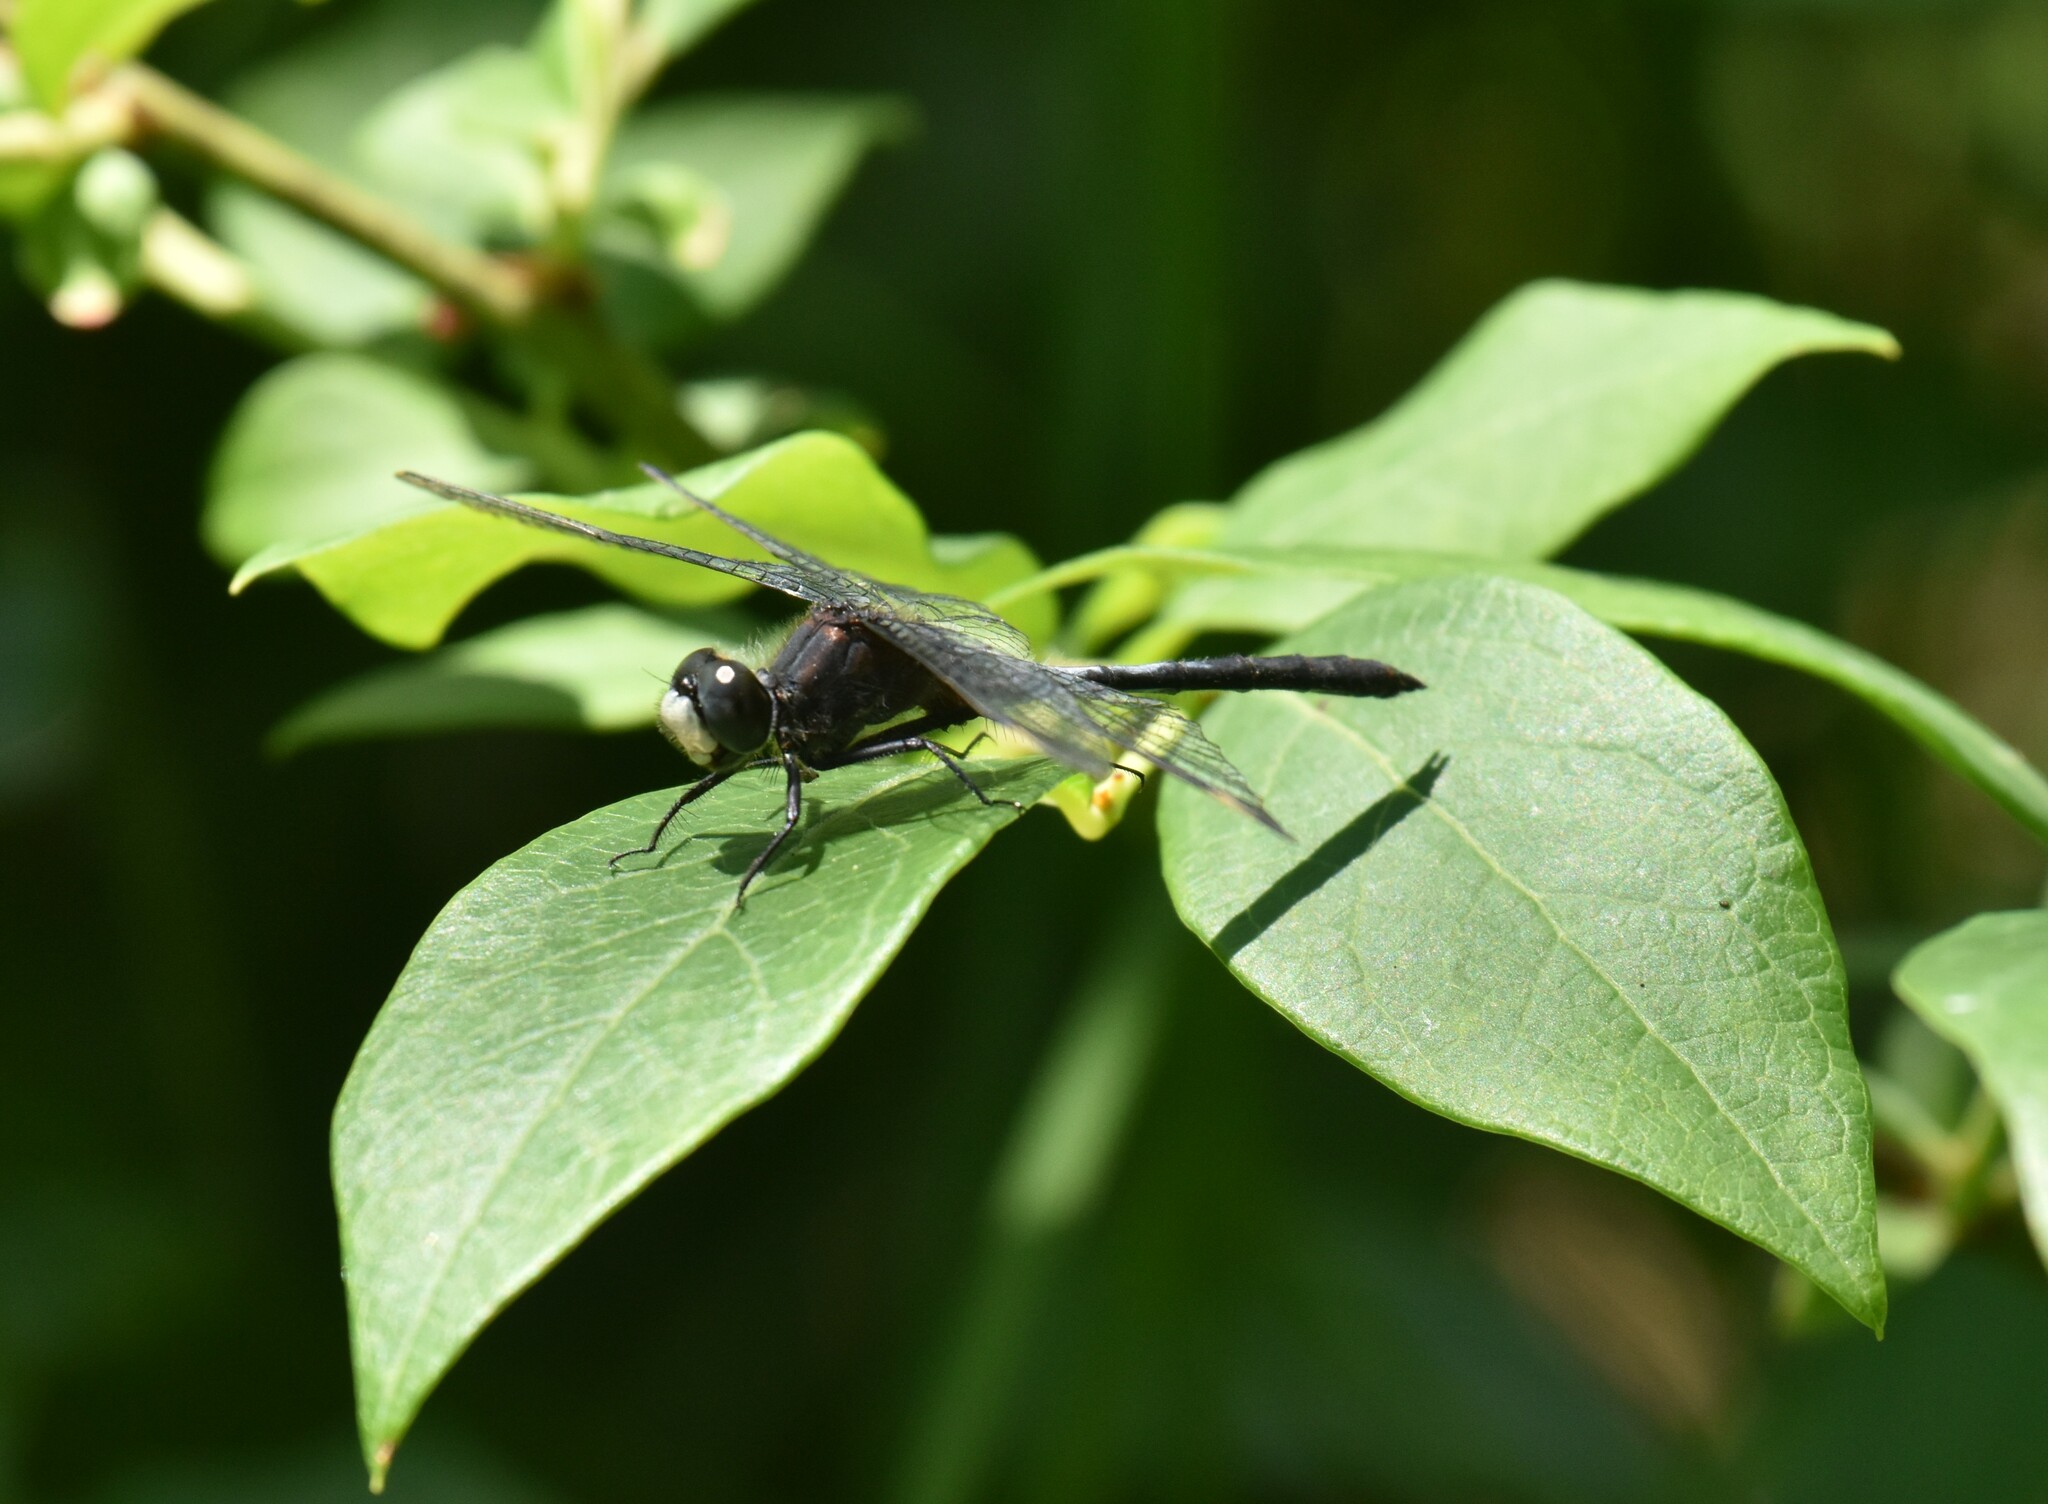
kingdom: Animalia
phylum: Arthropoda
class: Insecta
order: Odonata
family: Libellulidae
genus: Leucorrhinia
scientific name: Leucorrhinia proxima
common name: Belted whiteface
